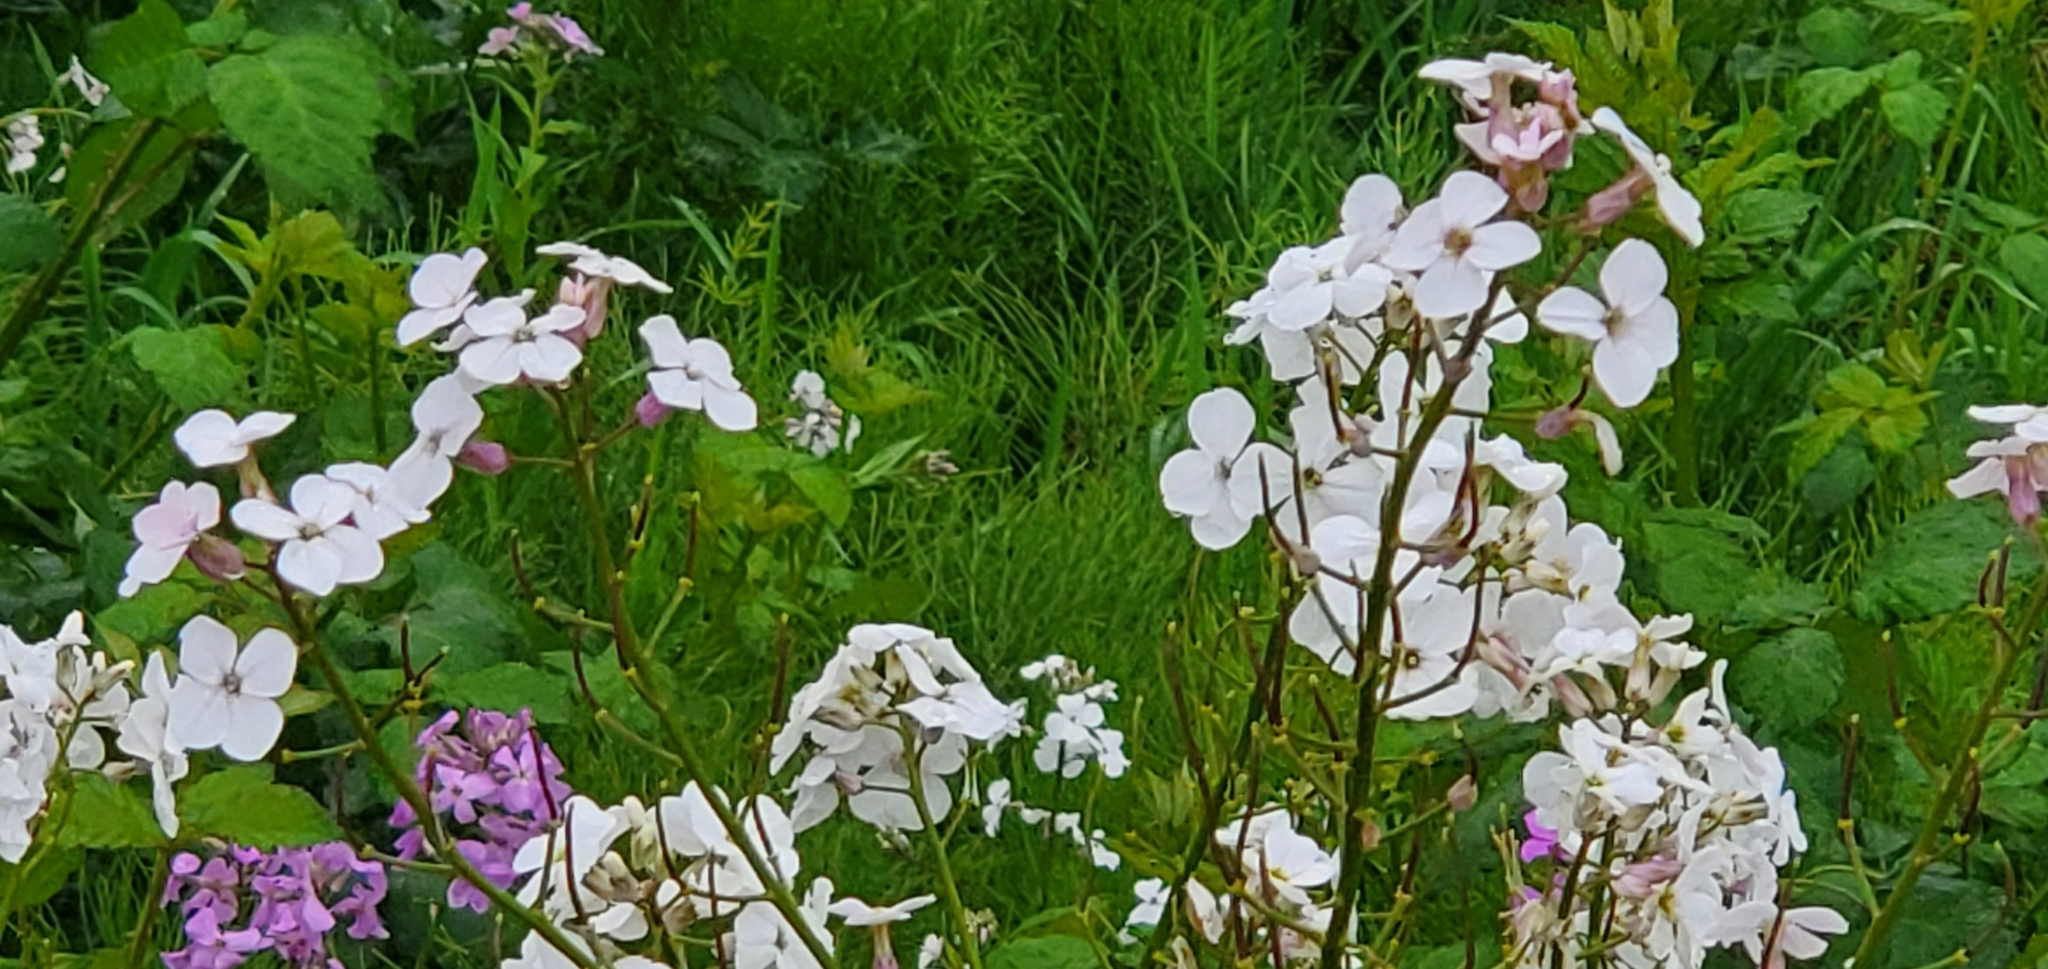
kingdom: Plantae
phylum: Tracheophyta
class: Magnoliopsida
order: Brassicales
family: Brassicaceae
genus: Hesperis
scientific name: Hesperis matronalis
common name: Dame's-violet
